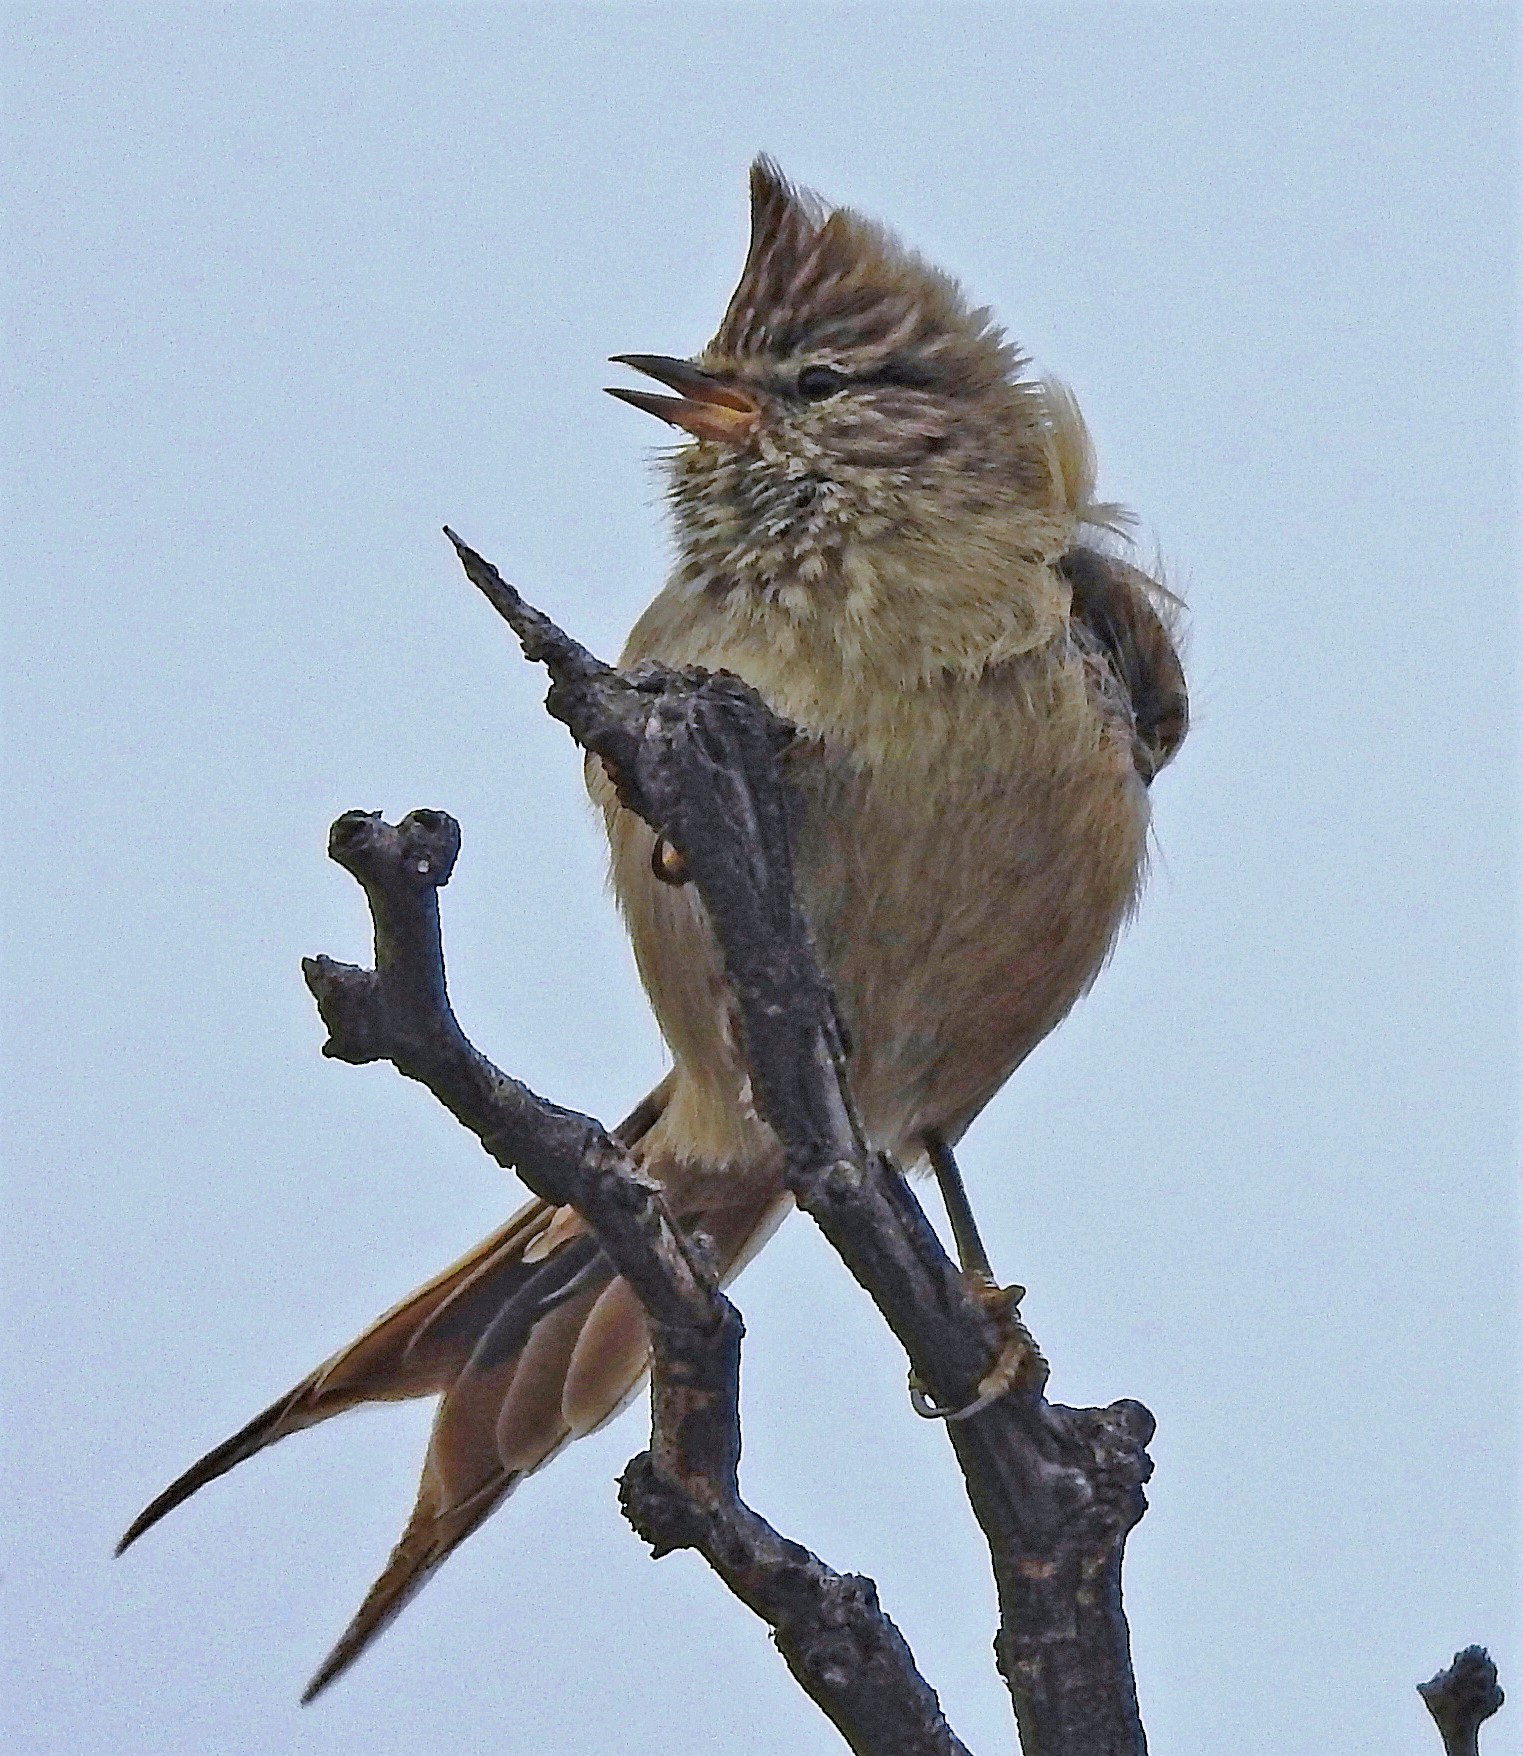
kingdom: Animalia
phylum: Chordata
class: Aves
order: Passeriformes
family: Furnariidae
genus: Leptasthenura
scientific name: Leptasthenura platensis
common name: Tufted tit-spinetail
